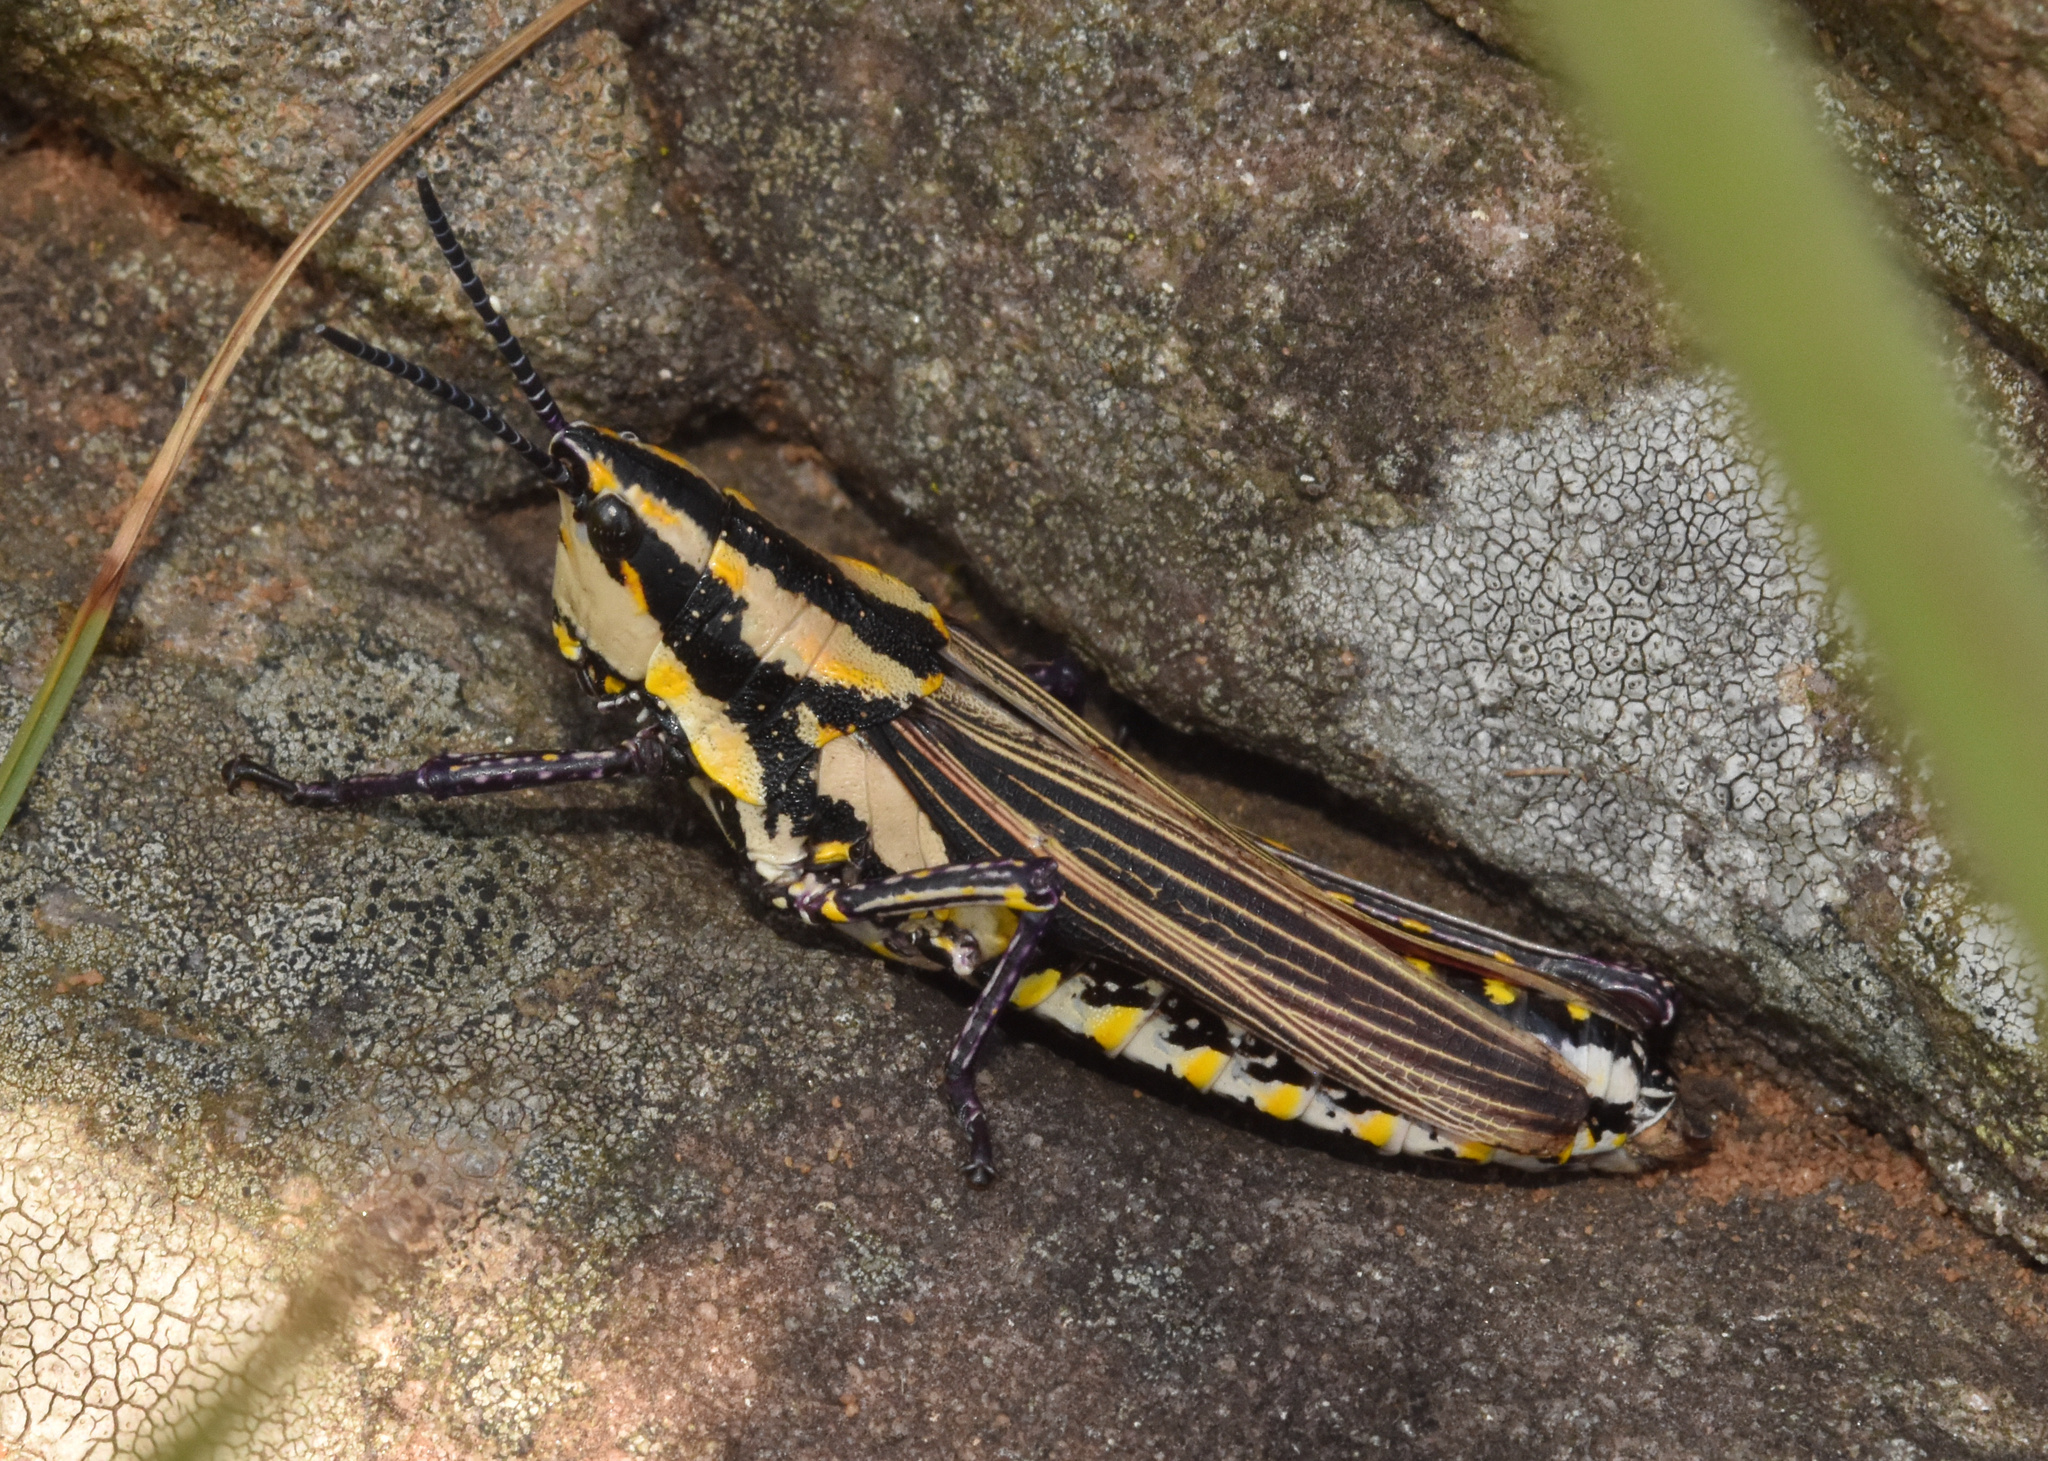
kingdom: Animalia
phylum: Arthropoda
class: Insecta
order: Orthoptera
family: Pyrgomorphidae
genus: Ochrophlebia
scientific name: Ochrophlebia cafra
